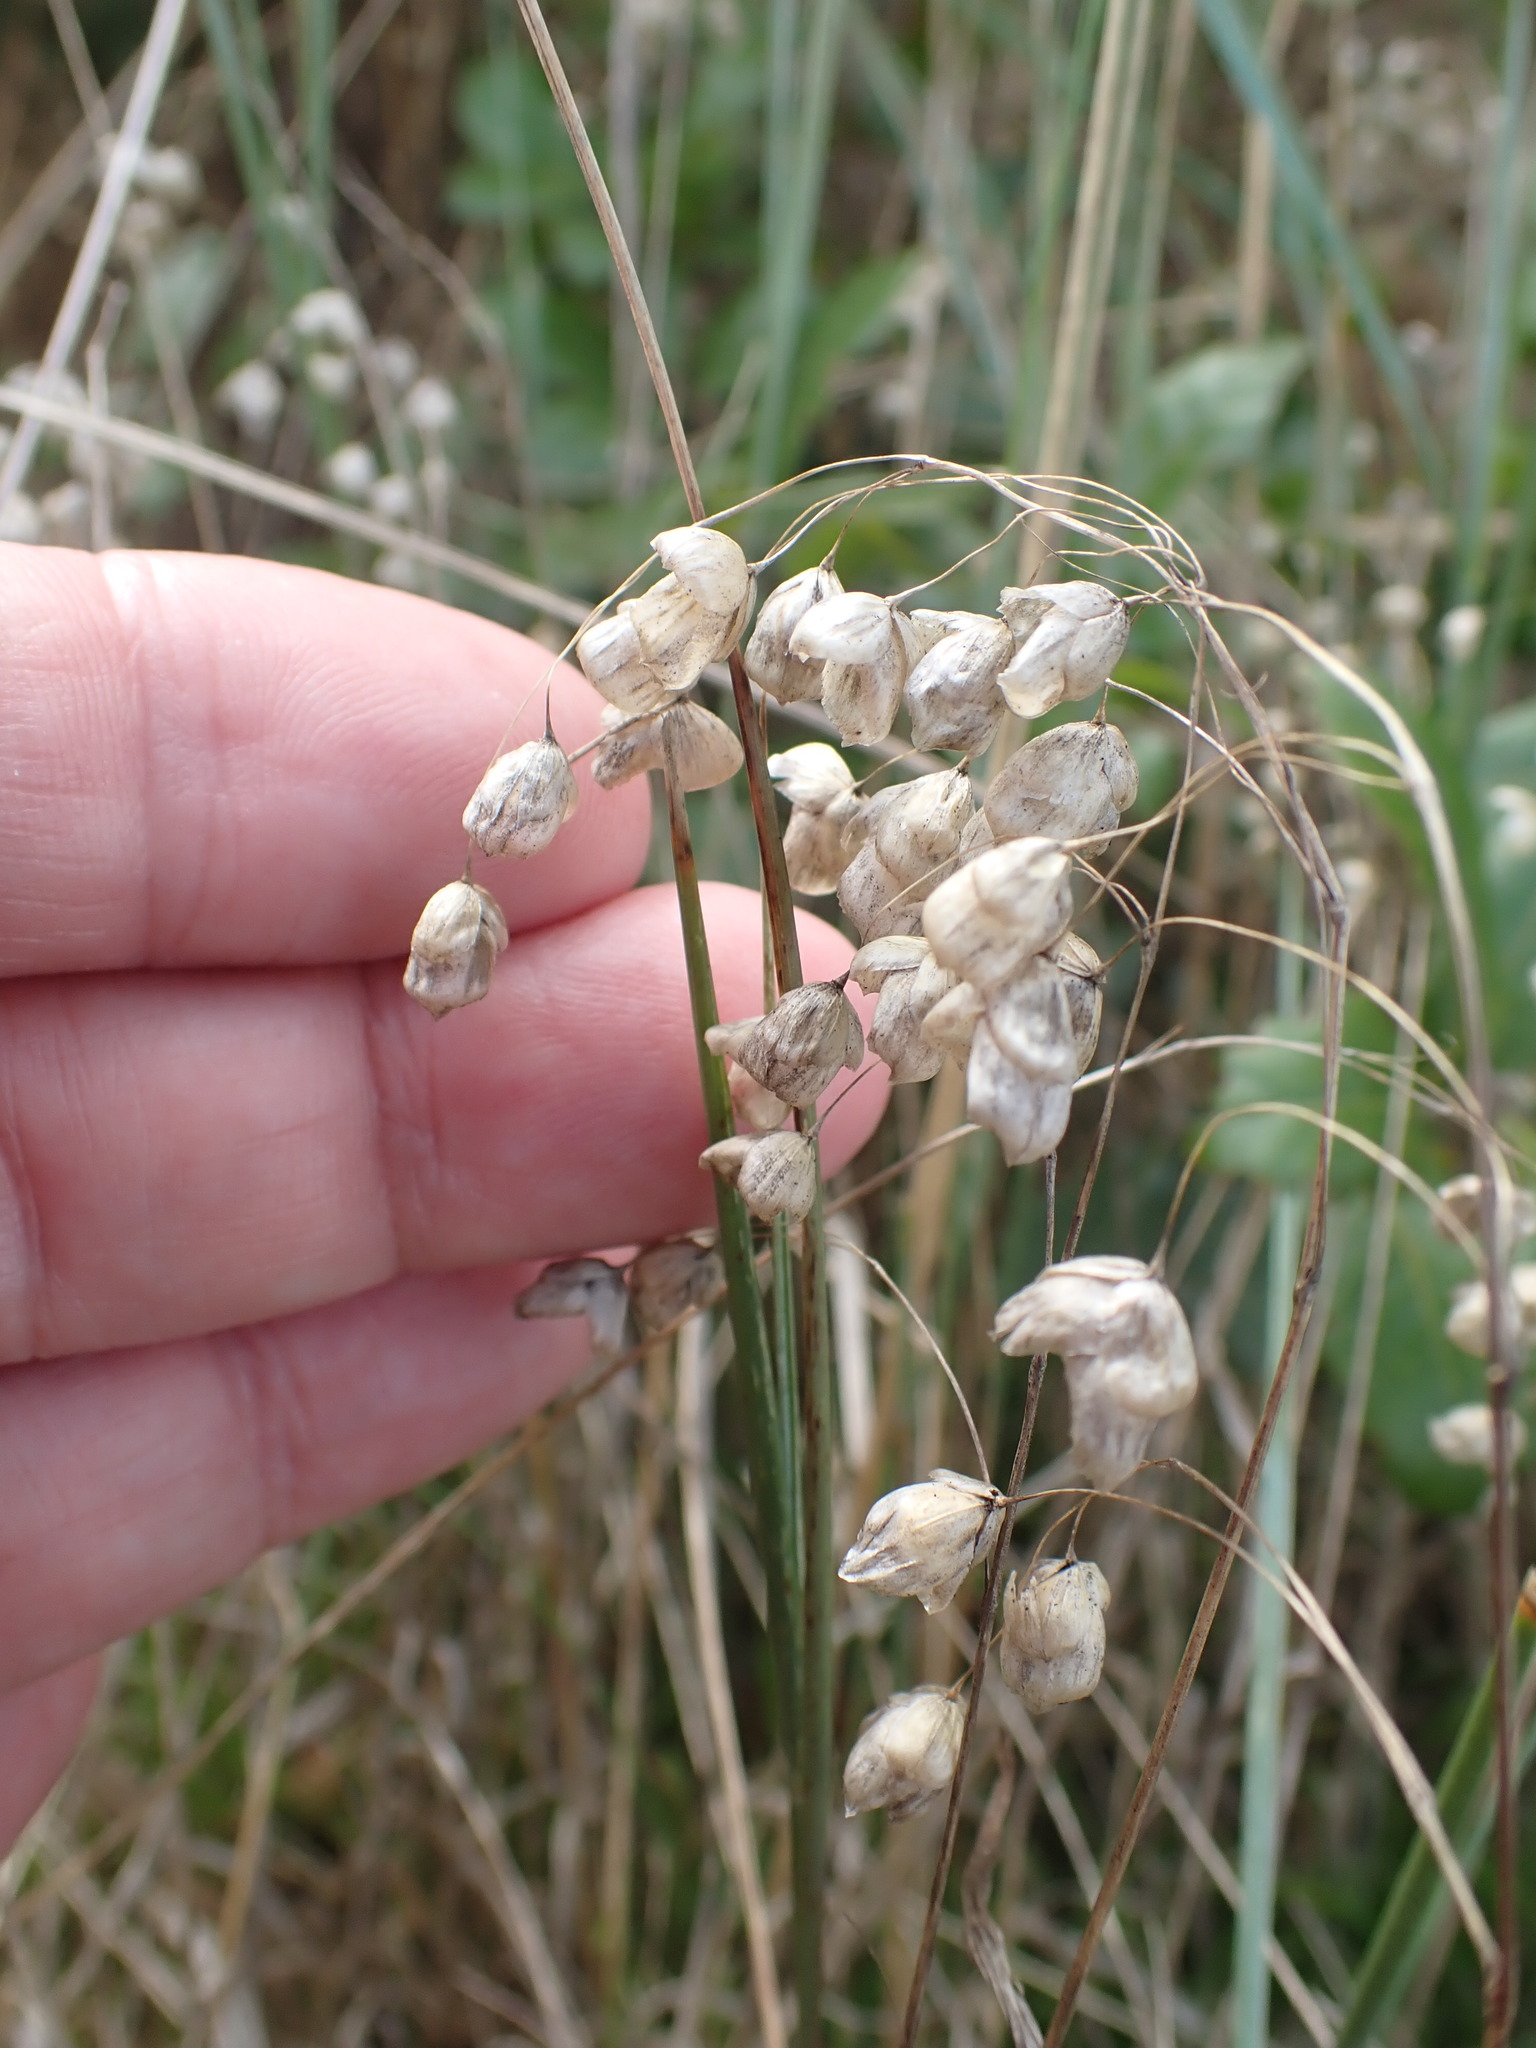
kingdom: Plantae
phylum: Tracheophyta
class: Liliopsida
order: Poales
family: Poaceae
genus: Briza
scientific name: Briza maxima
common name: Big quakinggrass
